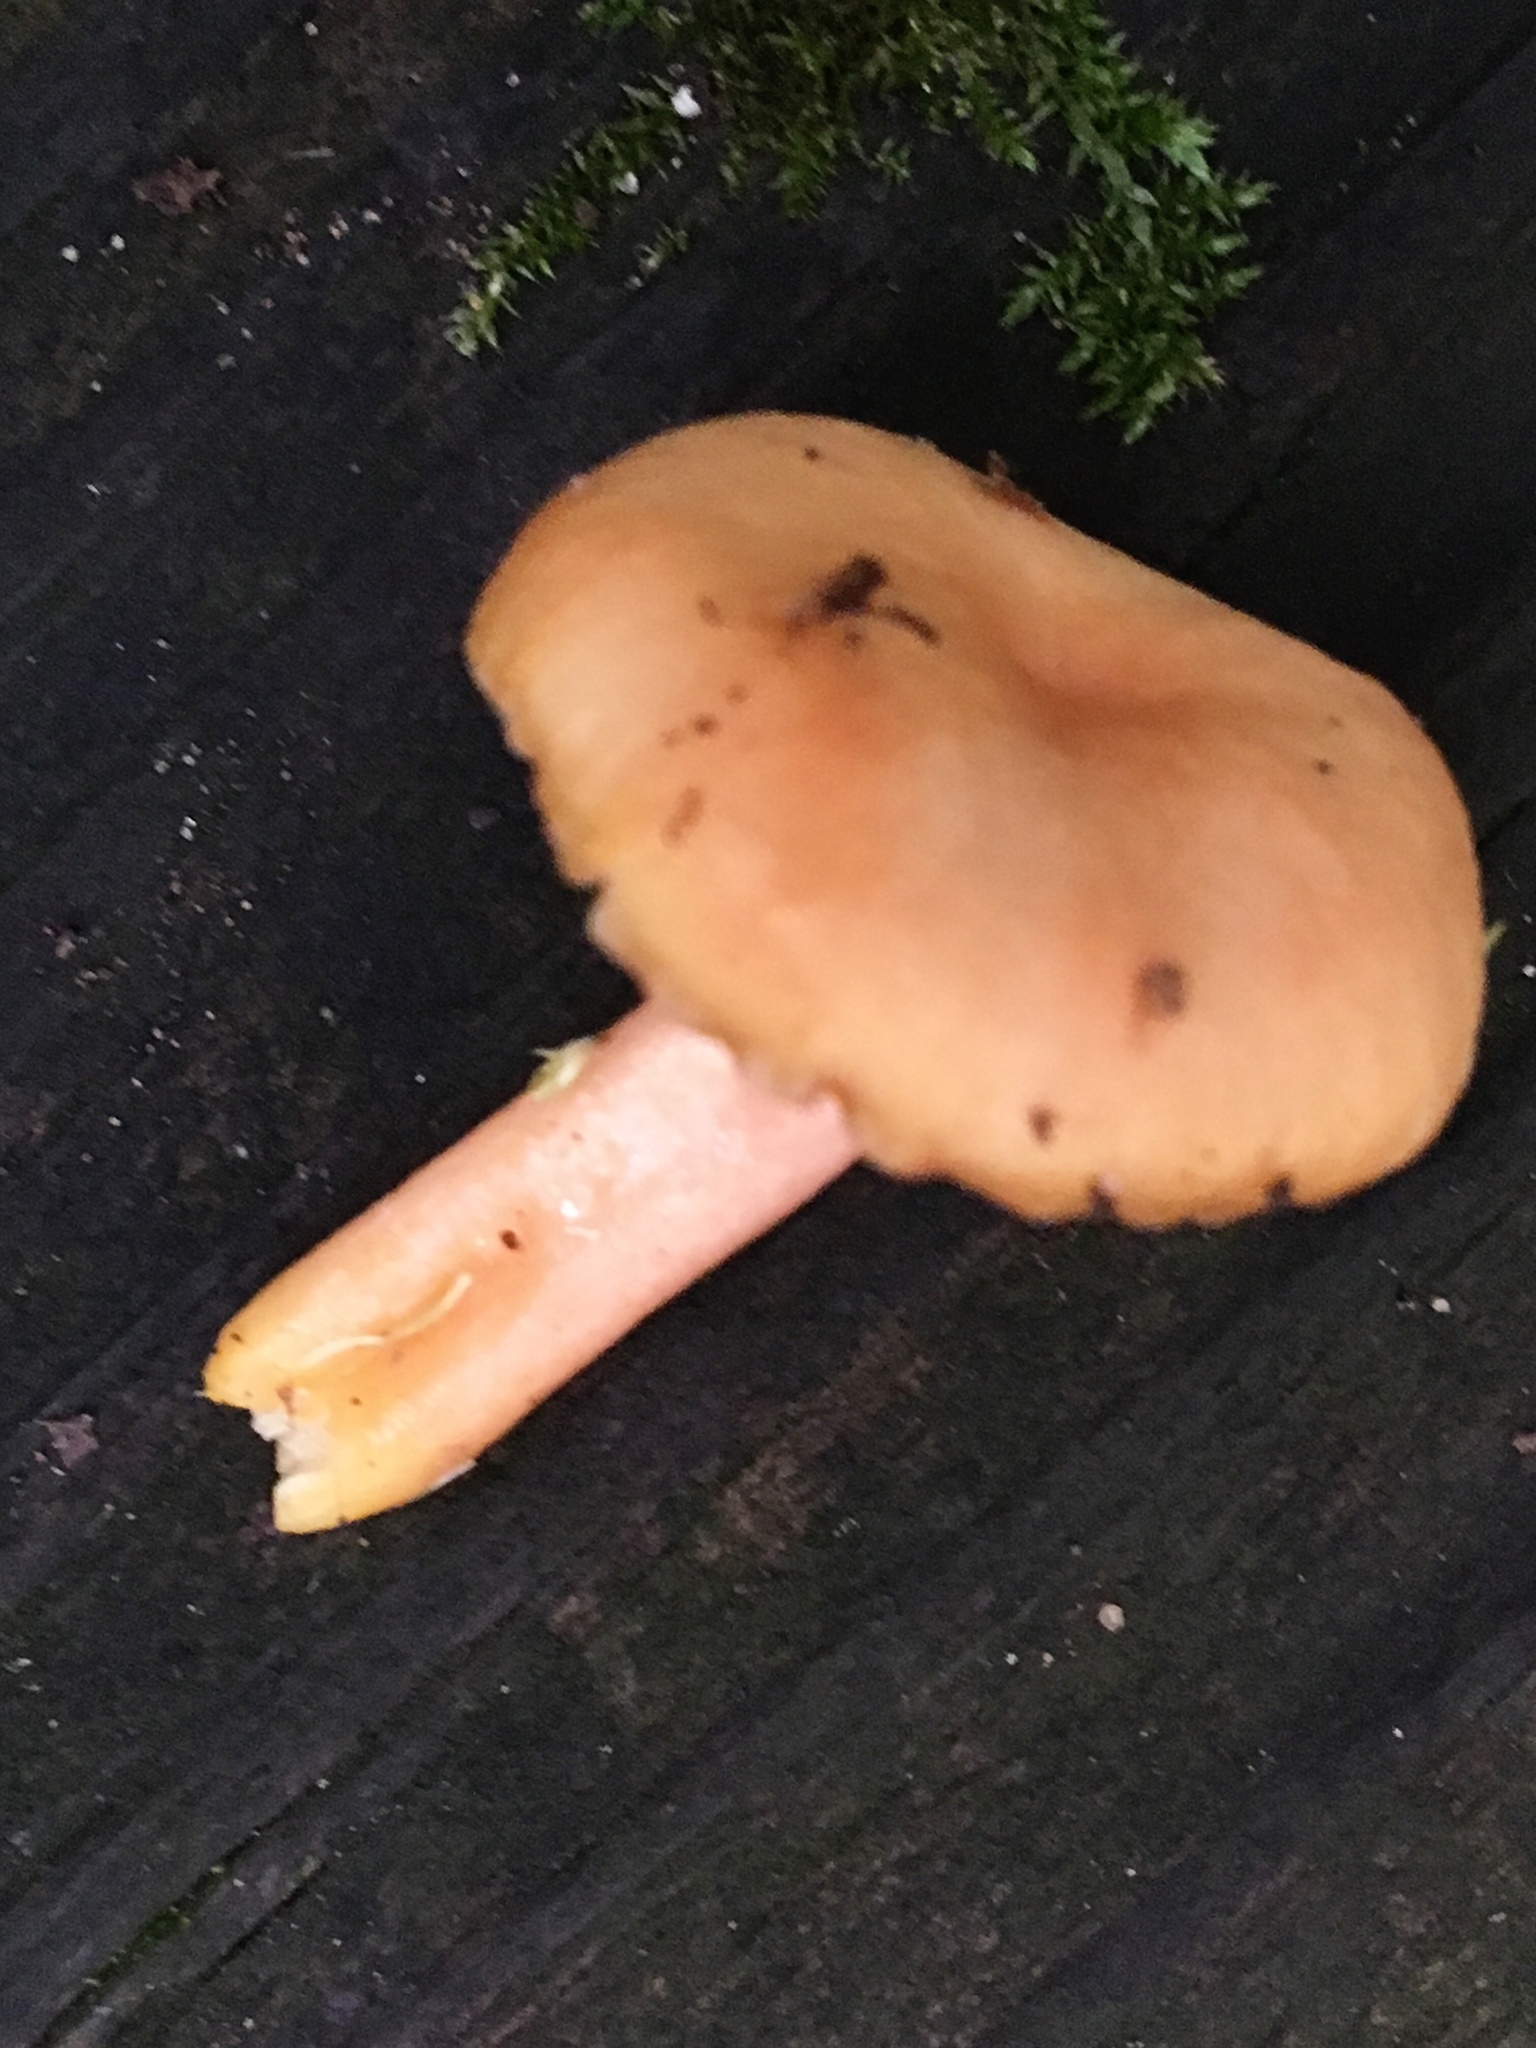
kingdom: Fungi
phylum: Basidiomycota
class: Agaricomycetes
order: Agaricales
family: Hygrophoraceae
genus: Gliophorus
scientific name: Gliophorus laetus
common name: Heath waxcap
